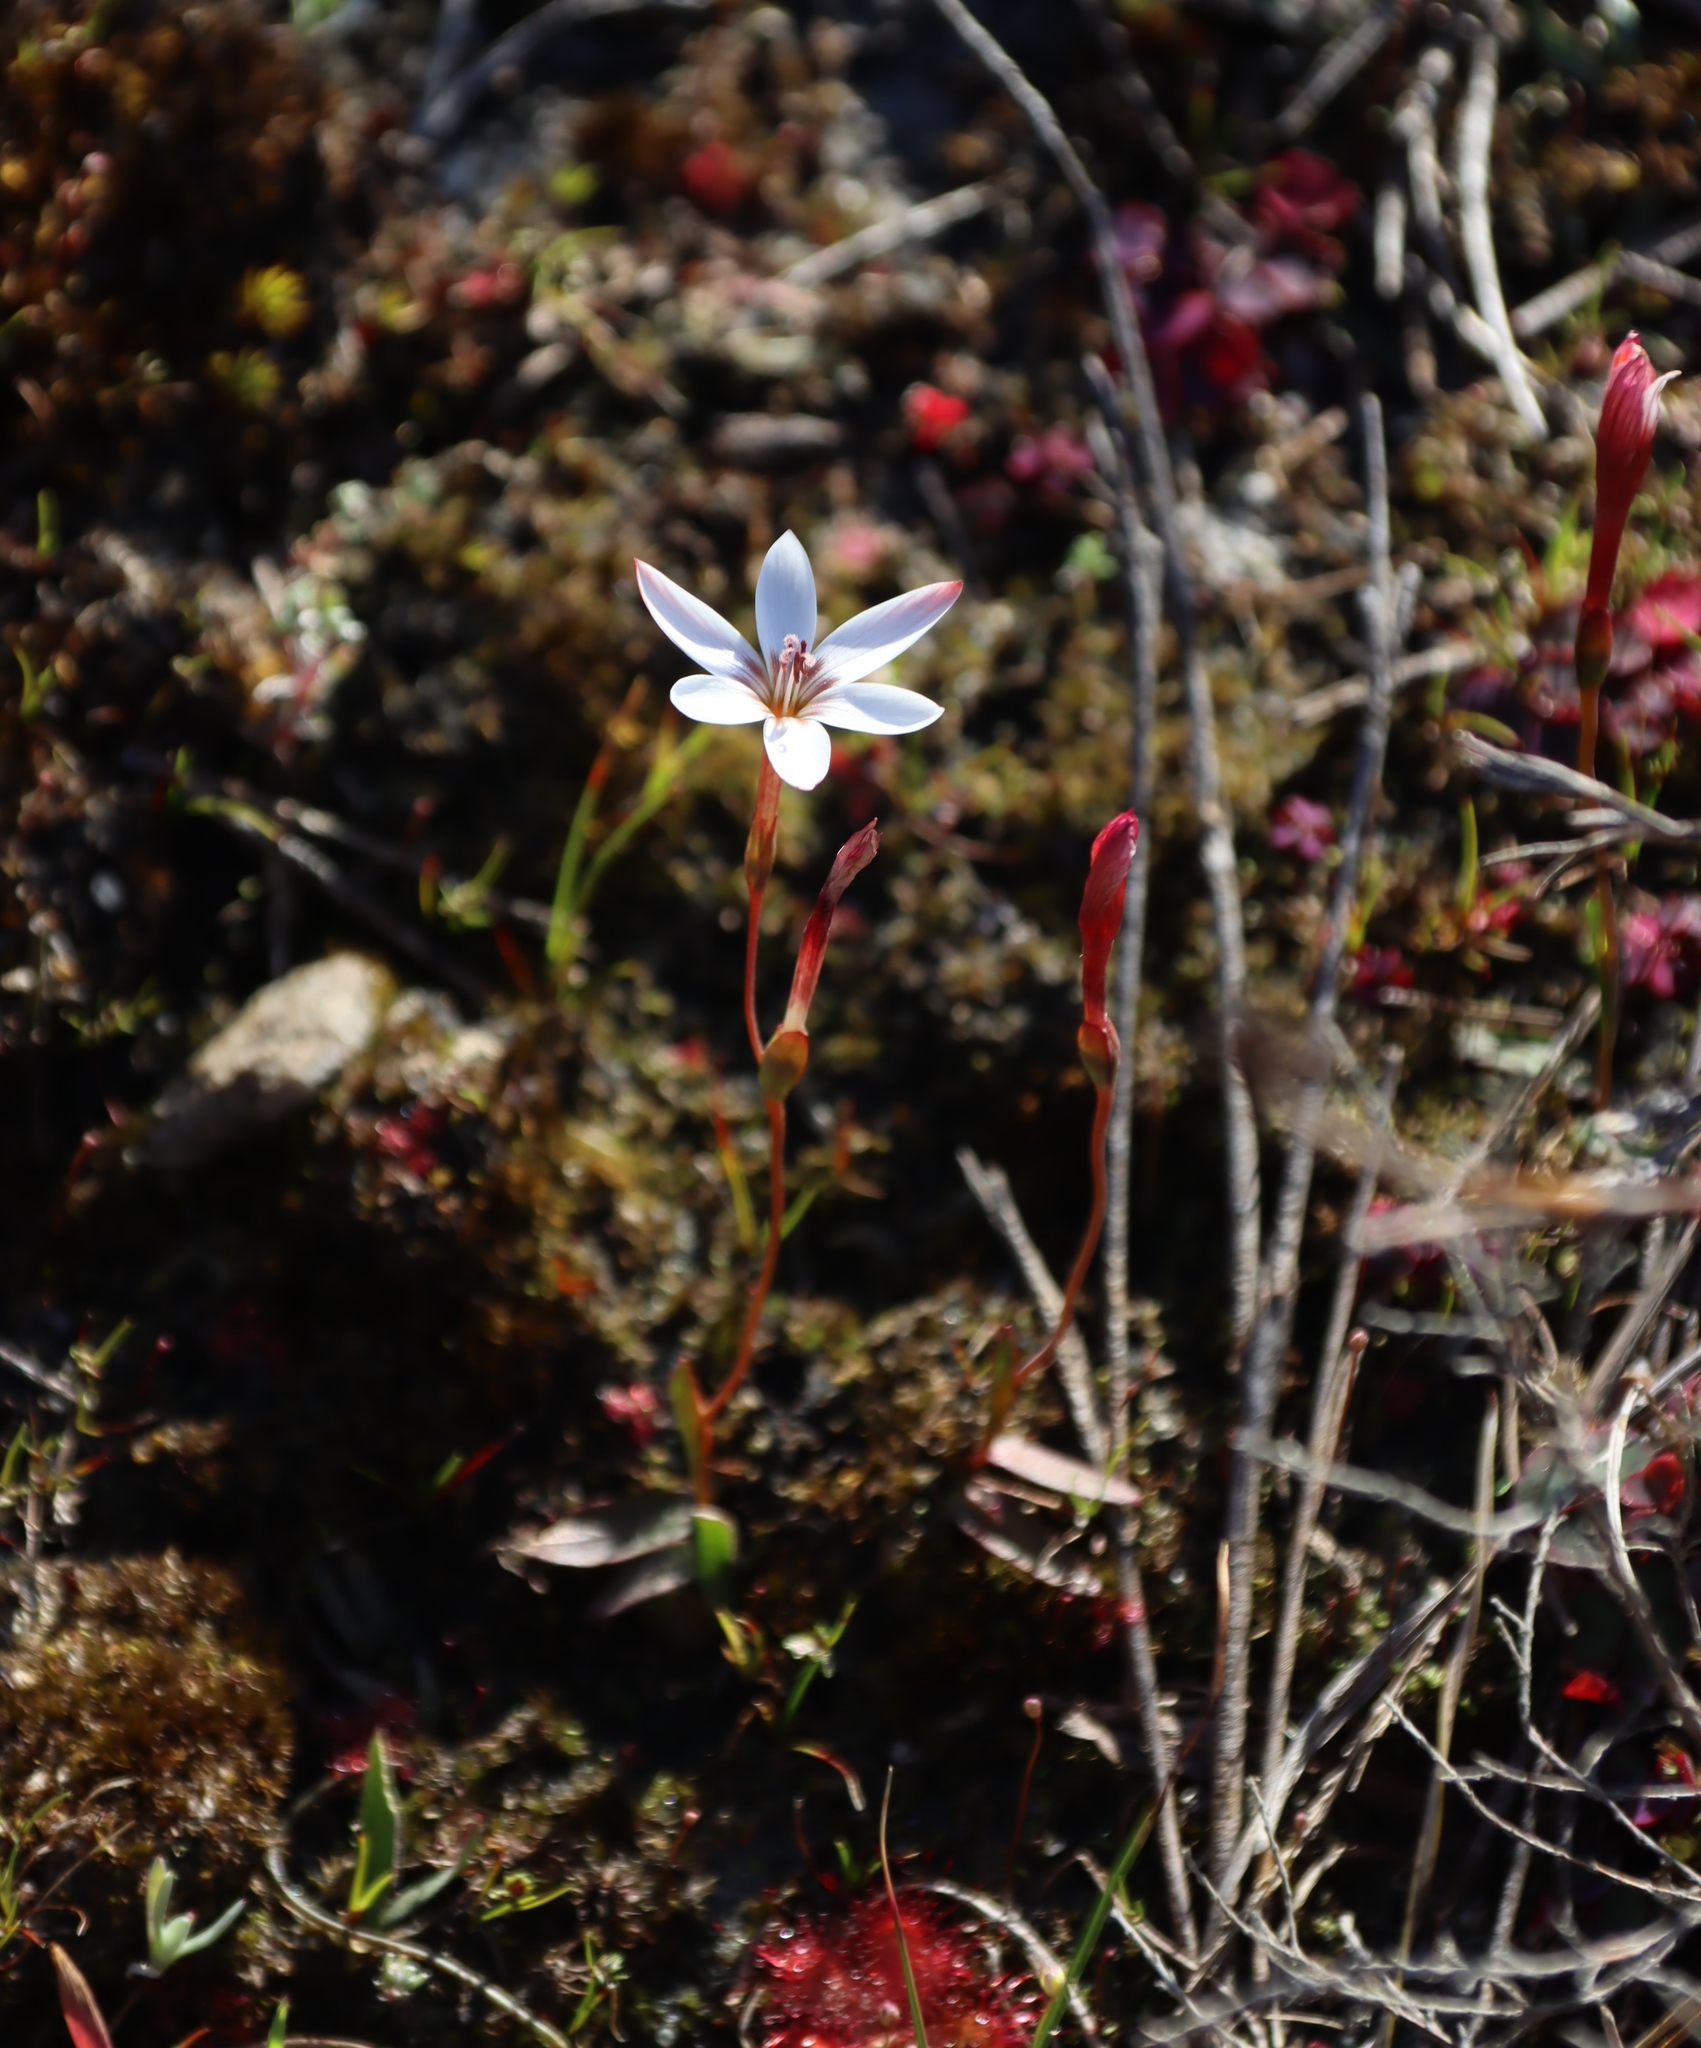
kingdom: Plantae
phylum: Tracheophyta
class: Liliopsida
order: Asparagales
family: Iridaceae
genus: Geissorhiza
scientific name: Geissorhiza ovata
